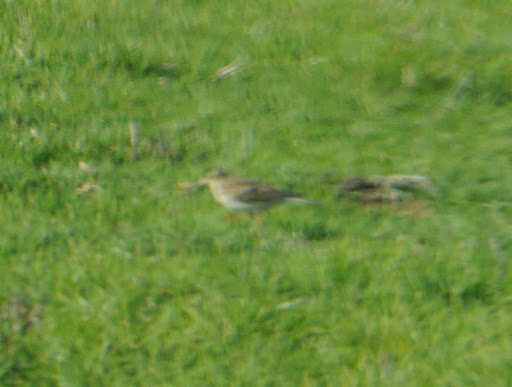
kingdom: Animalia
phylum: Chordata
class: Aves
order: Passeriformes
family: Alaudidae
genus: Alauda
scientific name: Alauda arvensis
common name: Eurasian skylark
